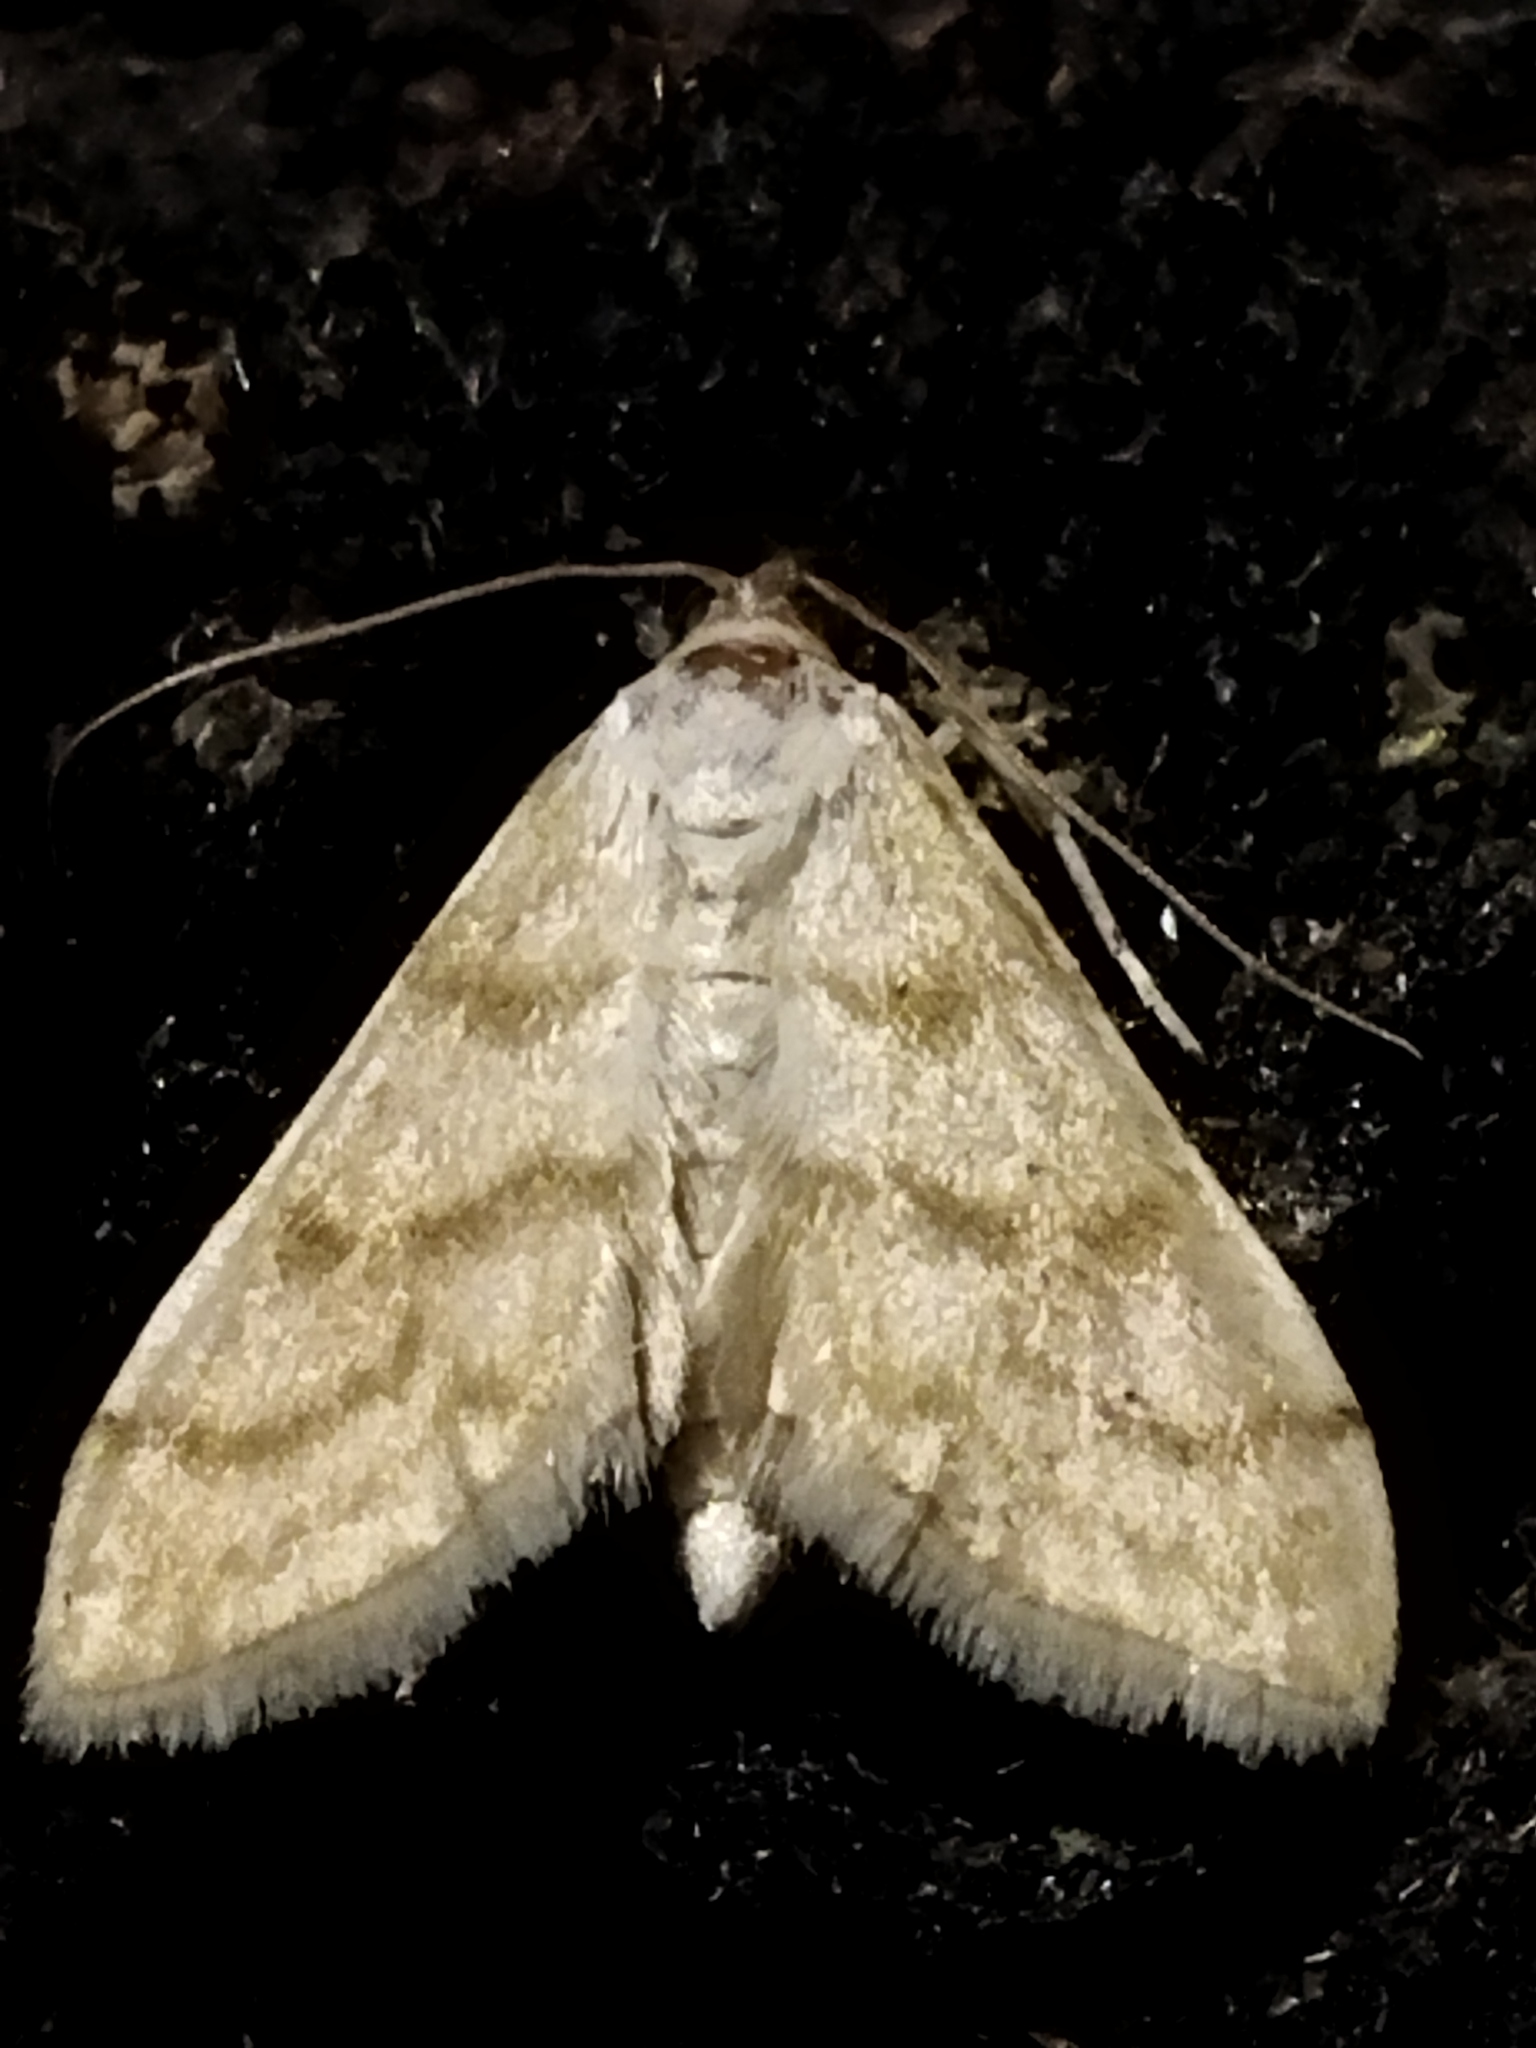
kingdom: Animalia
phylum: Arthropoda
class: Insecta
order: Lepidoptera
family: Crambidae
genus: Paracorsia
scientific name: Paracorsia repandalis
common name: Mullein moth
